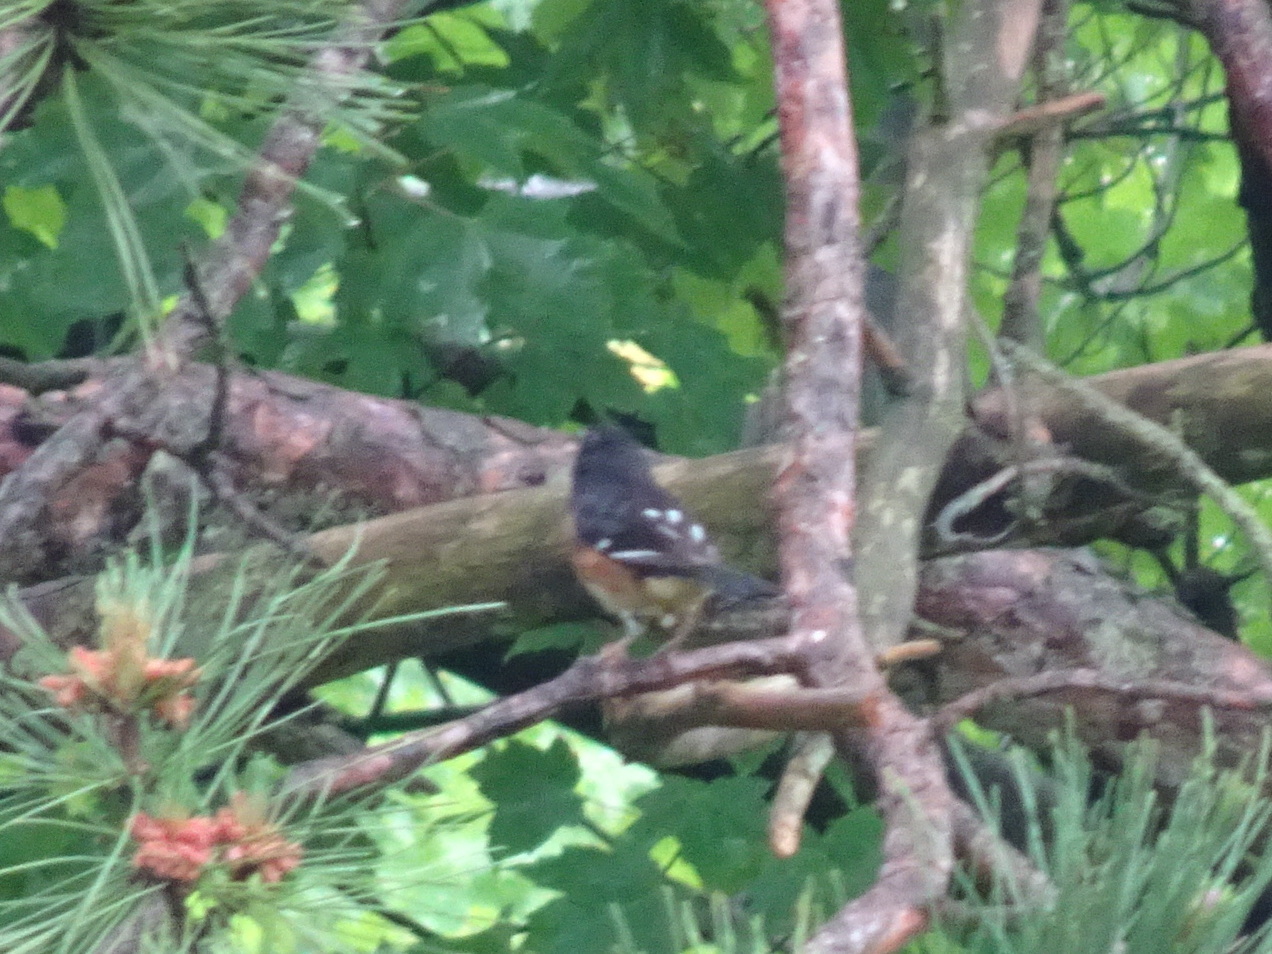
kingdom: Animalia
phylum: Chordata
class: Aves
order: Passeriformes
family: Passerellidae
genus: Pipilo
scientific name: Pipilo erythrophthalmus
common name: Eastern towhee
